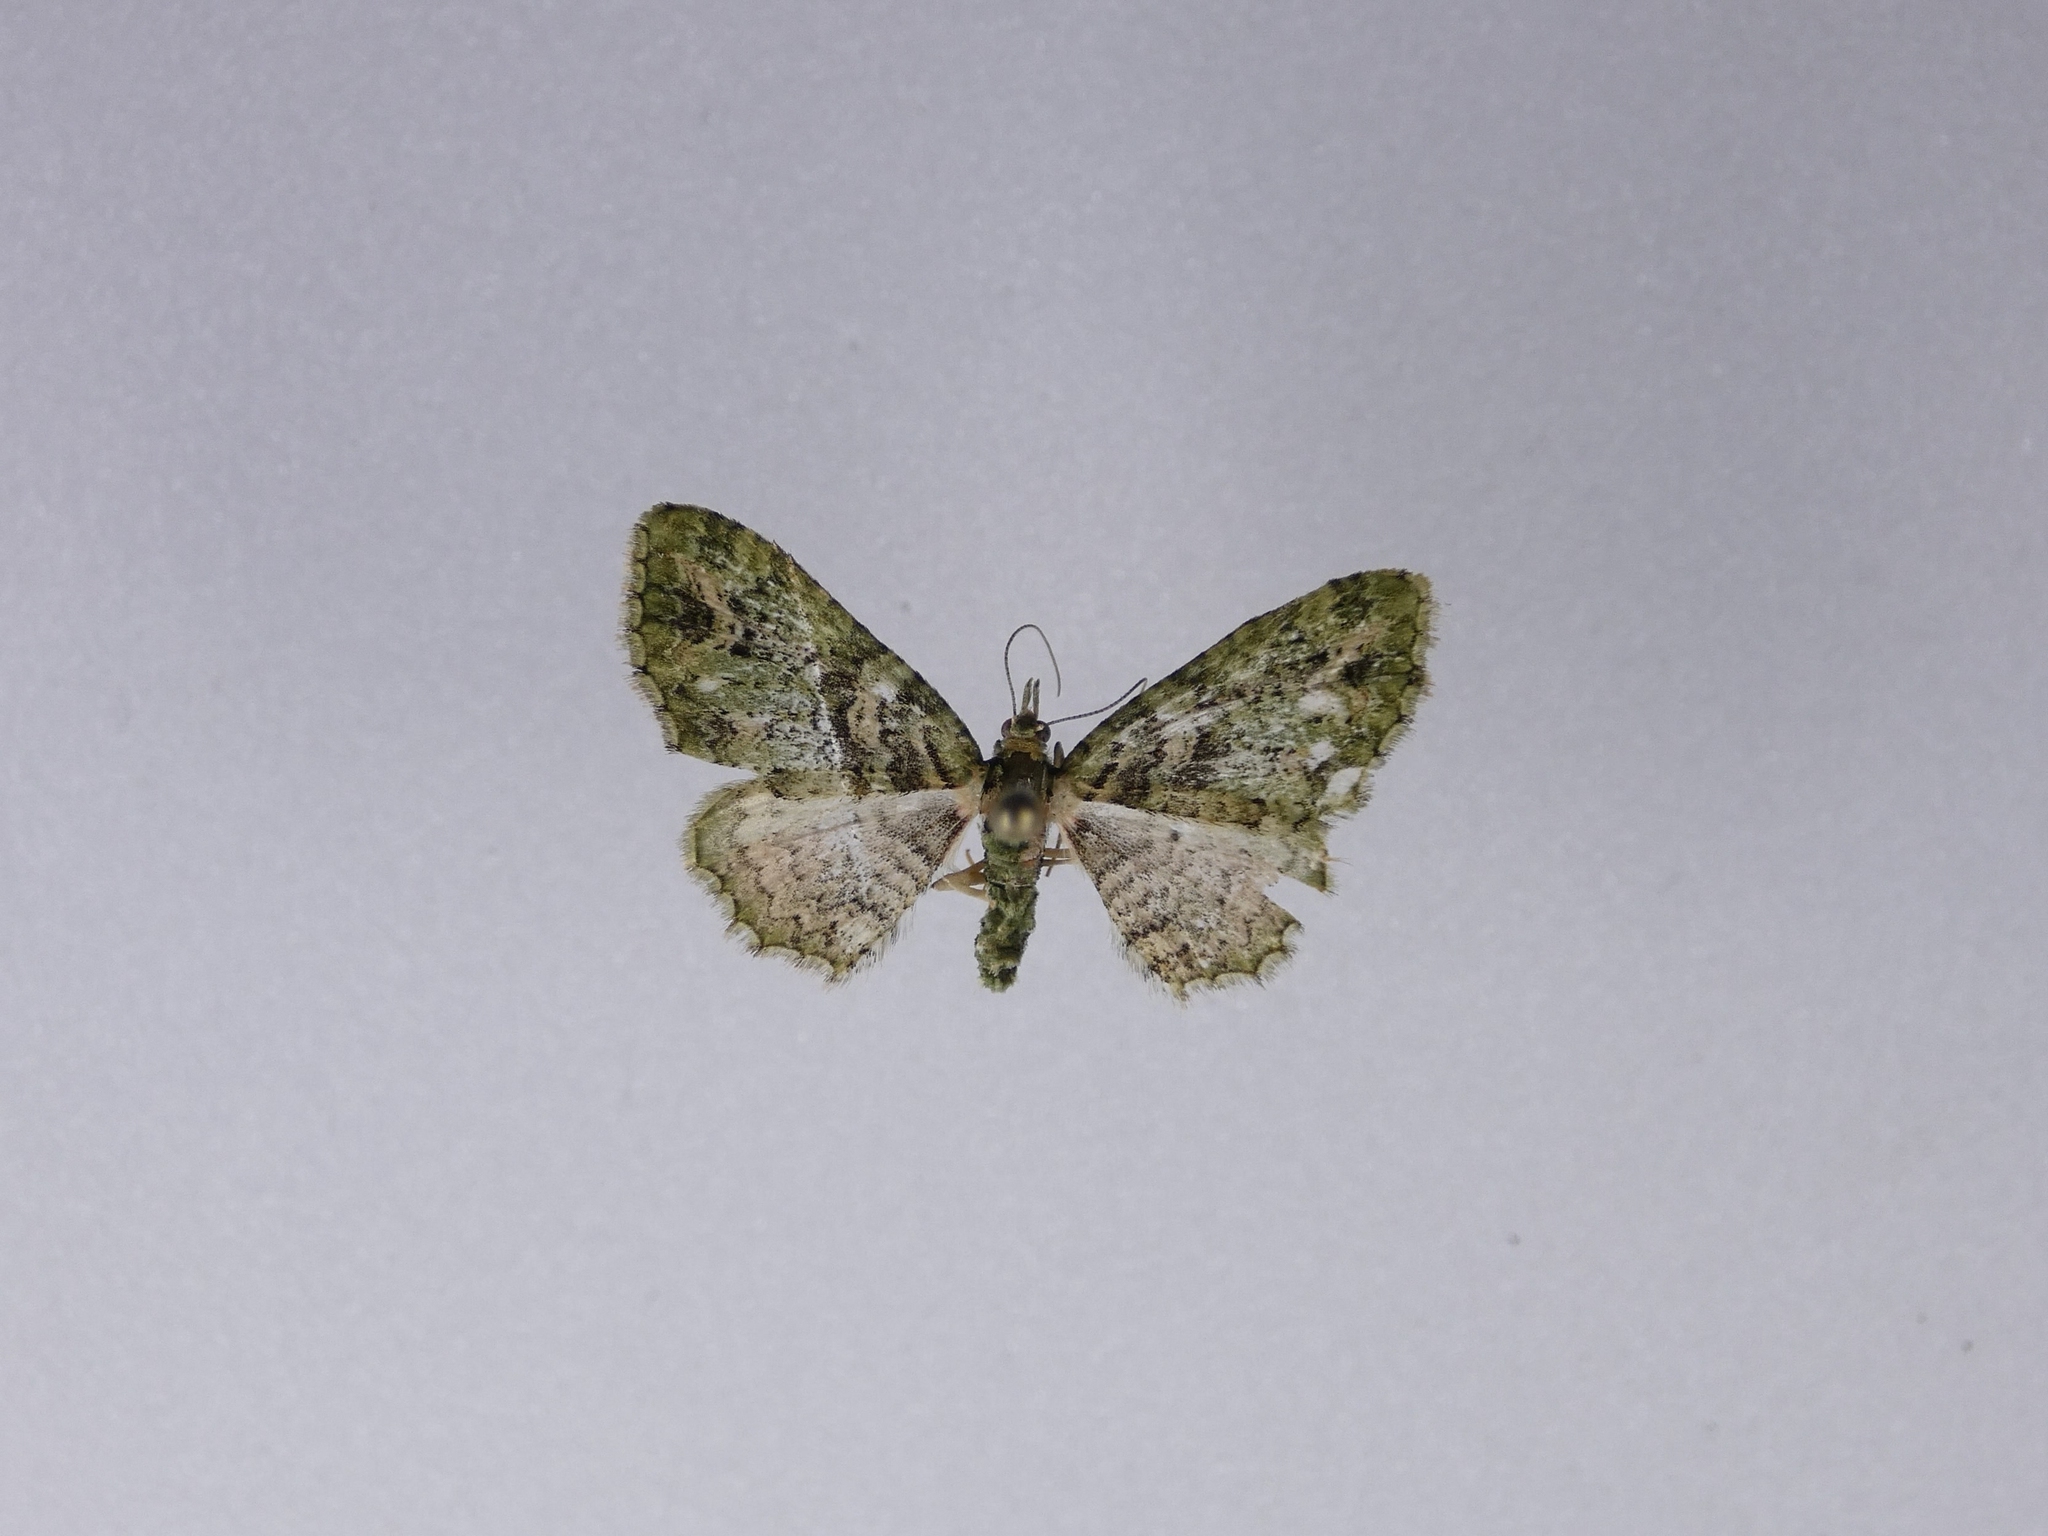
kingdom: Animalia
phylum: Arthropoda
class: Insecta
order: Lepidoptera
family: Geometridae
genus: Pasiphila
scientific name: Pasiphila muscosata
